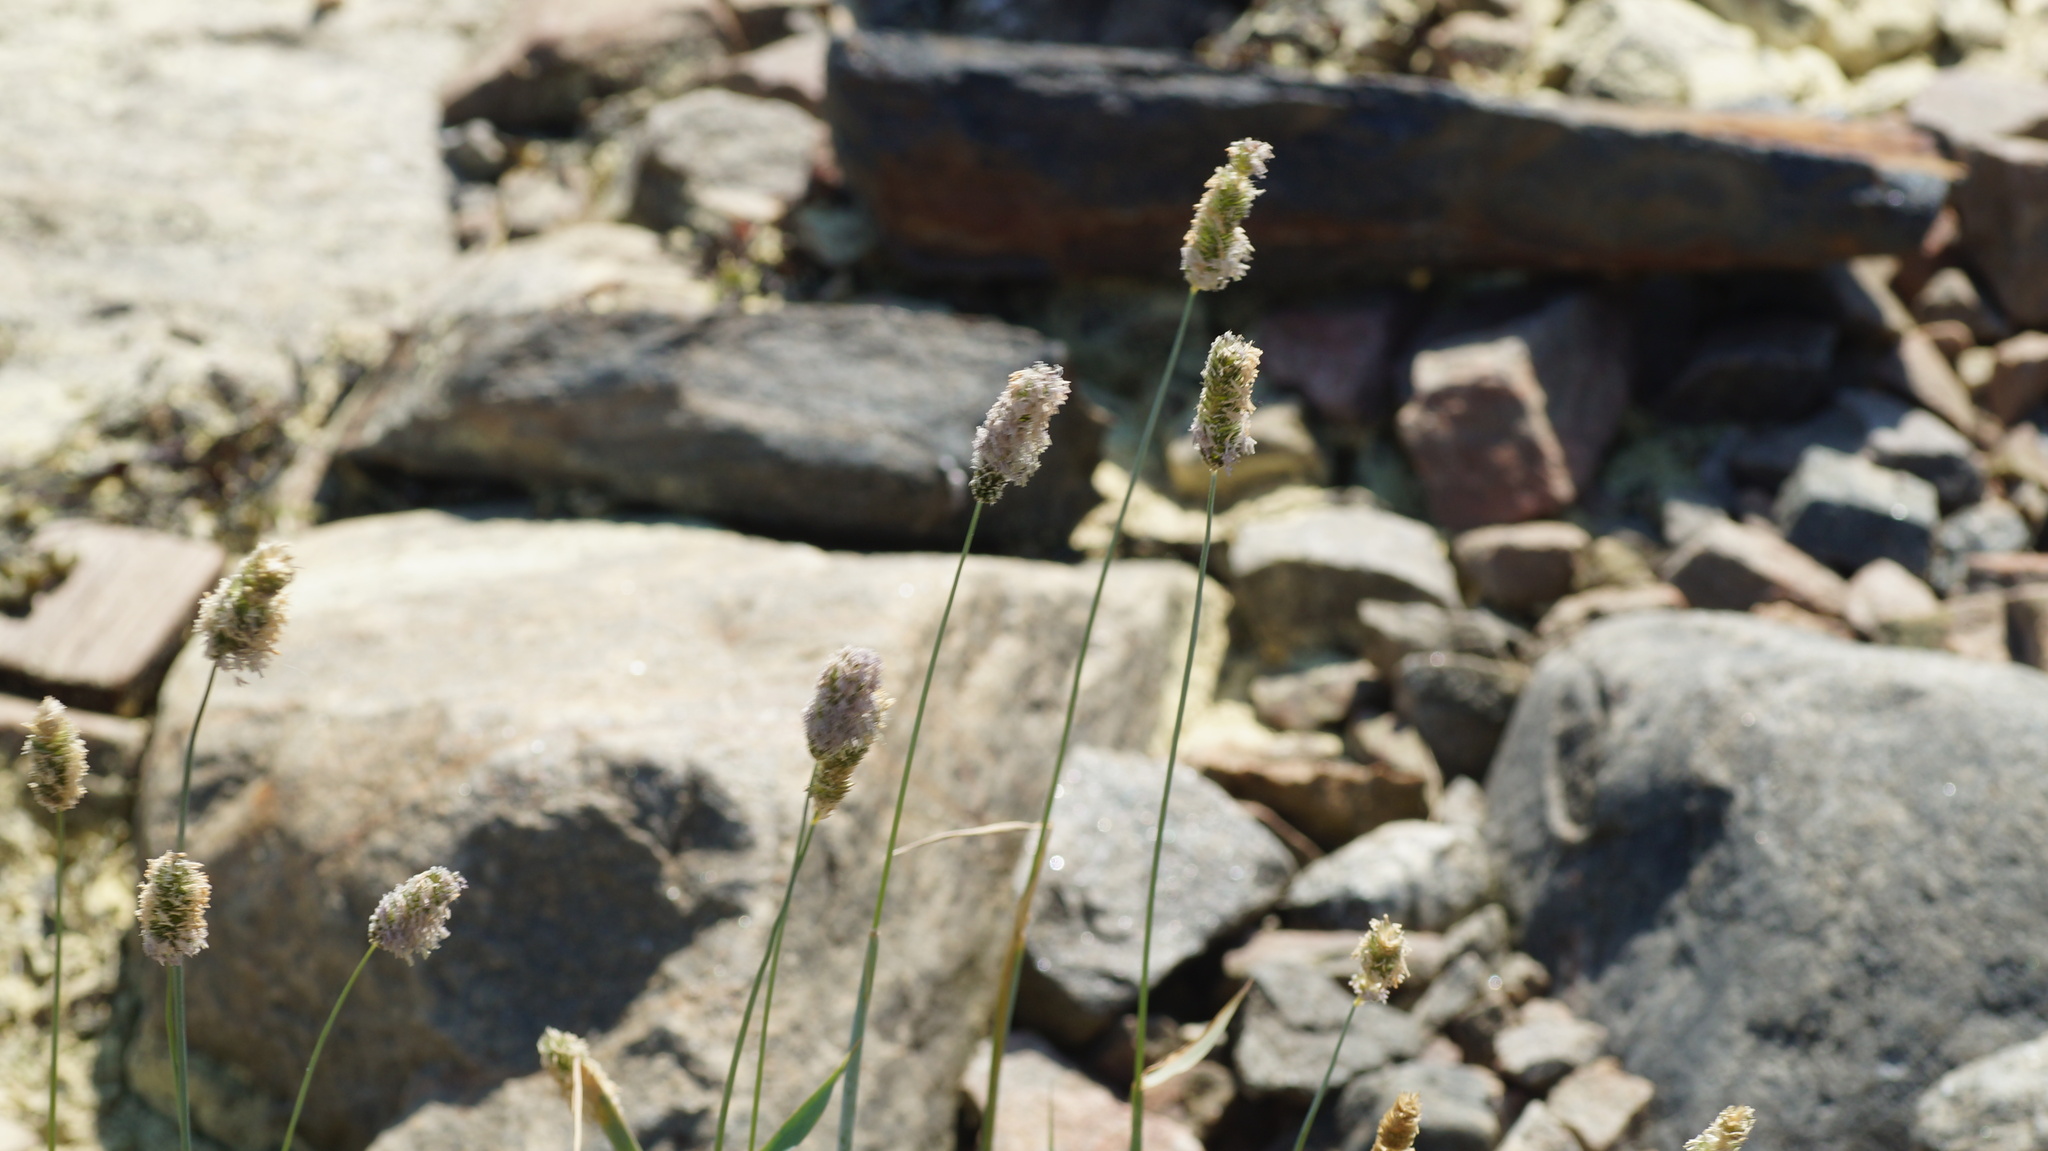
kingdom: Plantae
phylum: Tracheophyta
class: Liliopsida
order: Poales
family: Poaceae
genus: Phleum
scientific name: Phleum alpinum
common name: Alpine cat's-tail
